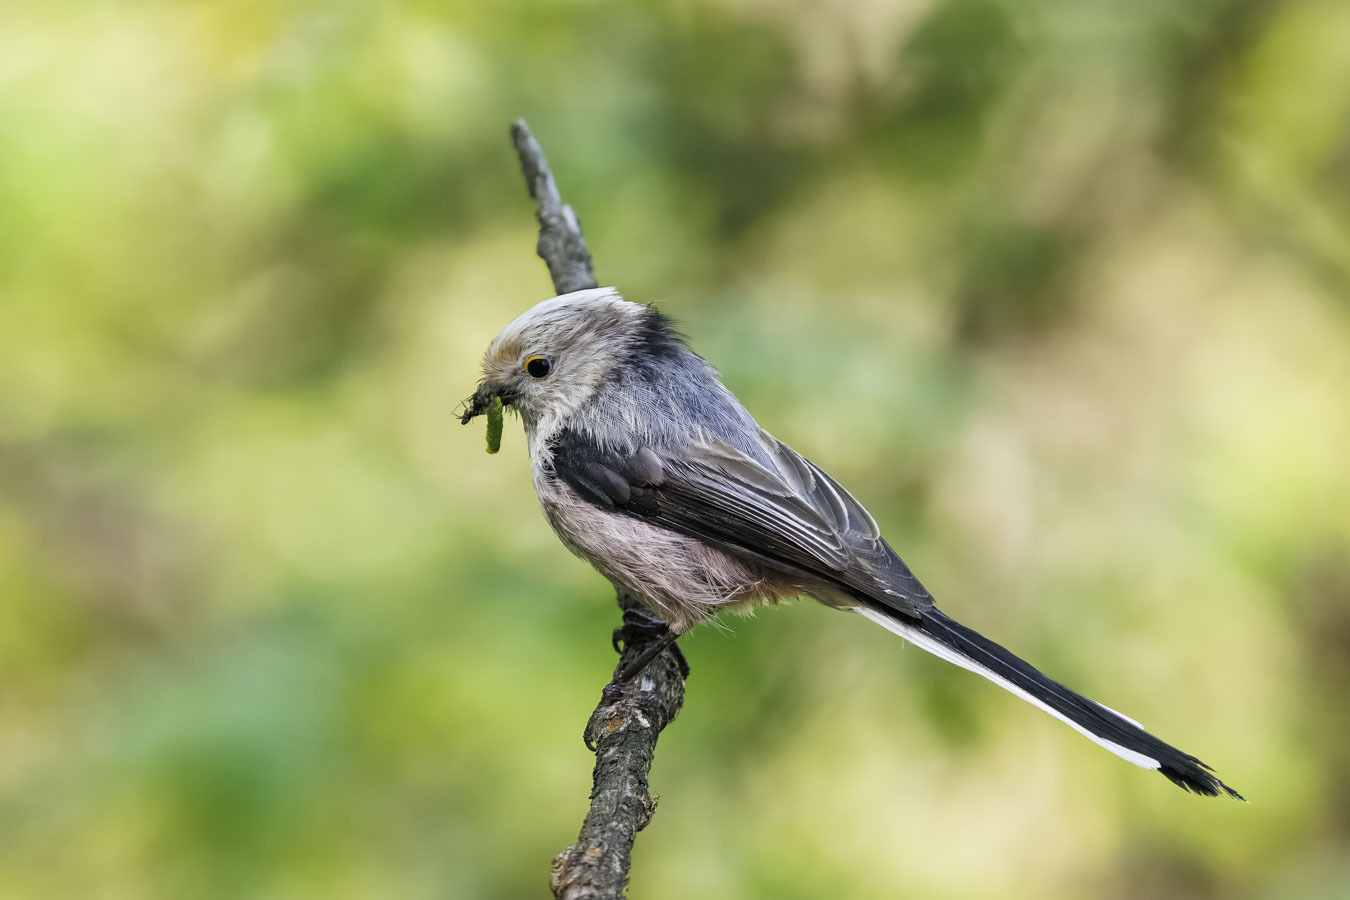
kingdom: Animalia
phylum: Chordata
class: Aves
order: Passeriformes
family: Aegithalidae
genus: Aegithalos
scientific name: Aegithalos caudatus
